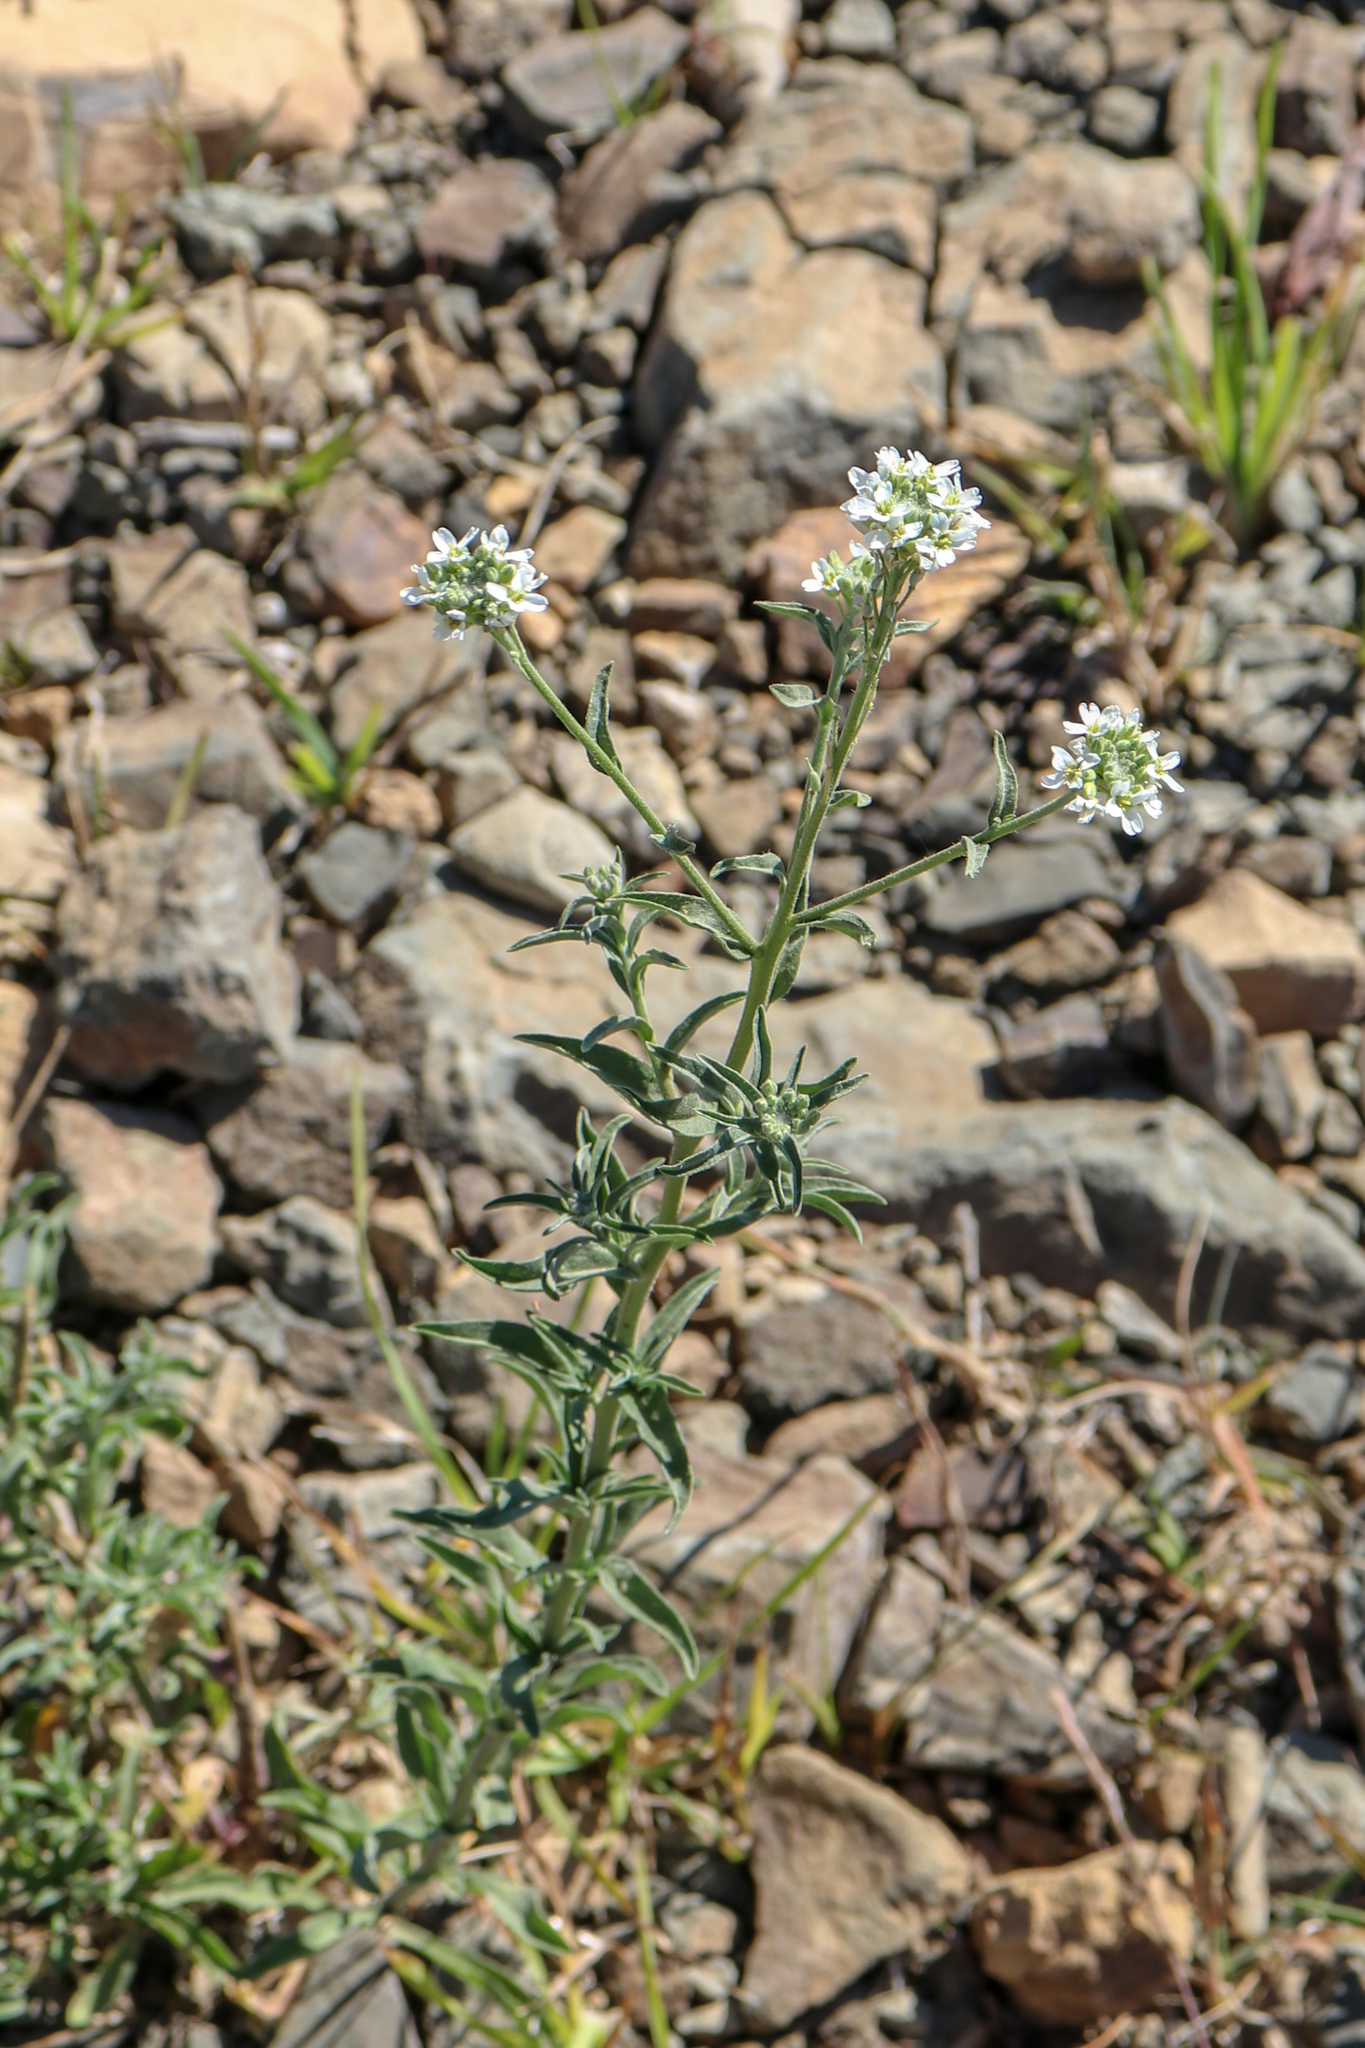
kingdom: Plantae
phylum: Tracheophyta
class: Magnoliopsida
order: Brassicales
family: Brassicaceae
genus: Berteroa
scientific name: Berteroa incana
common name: Hoary alison
